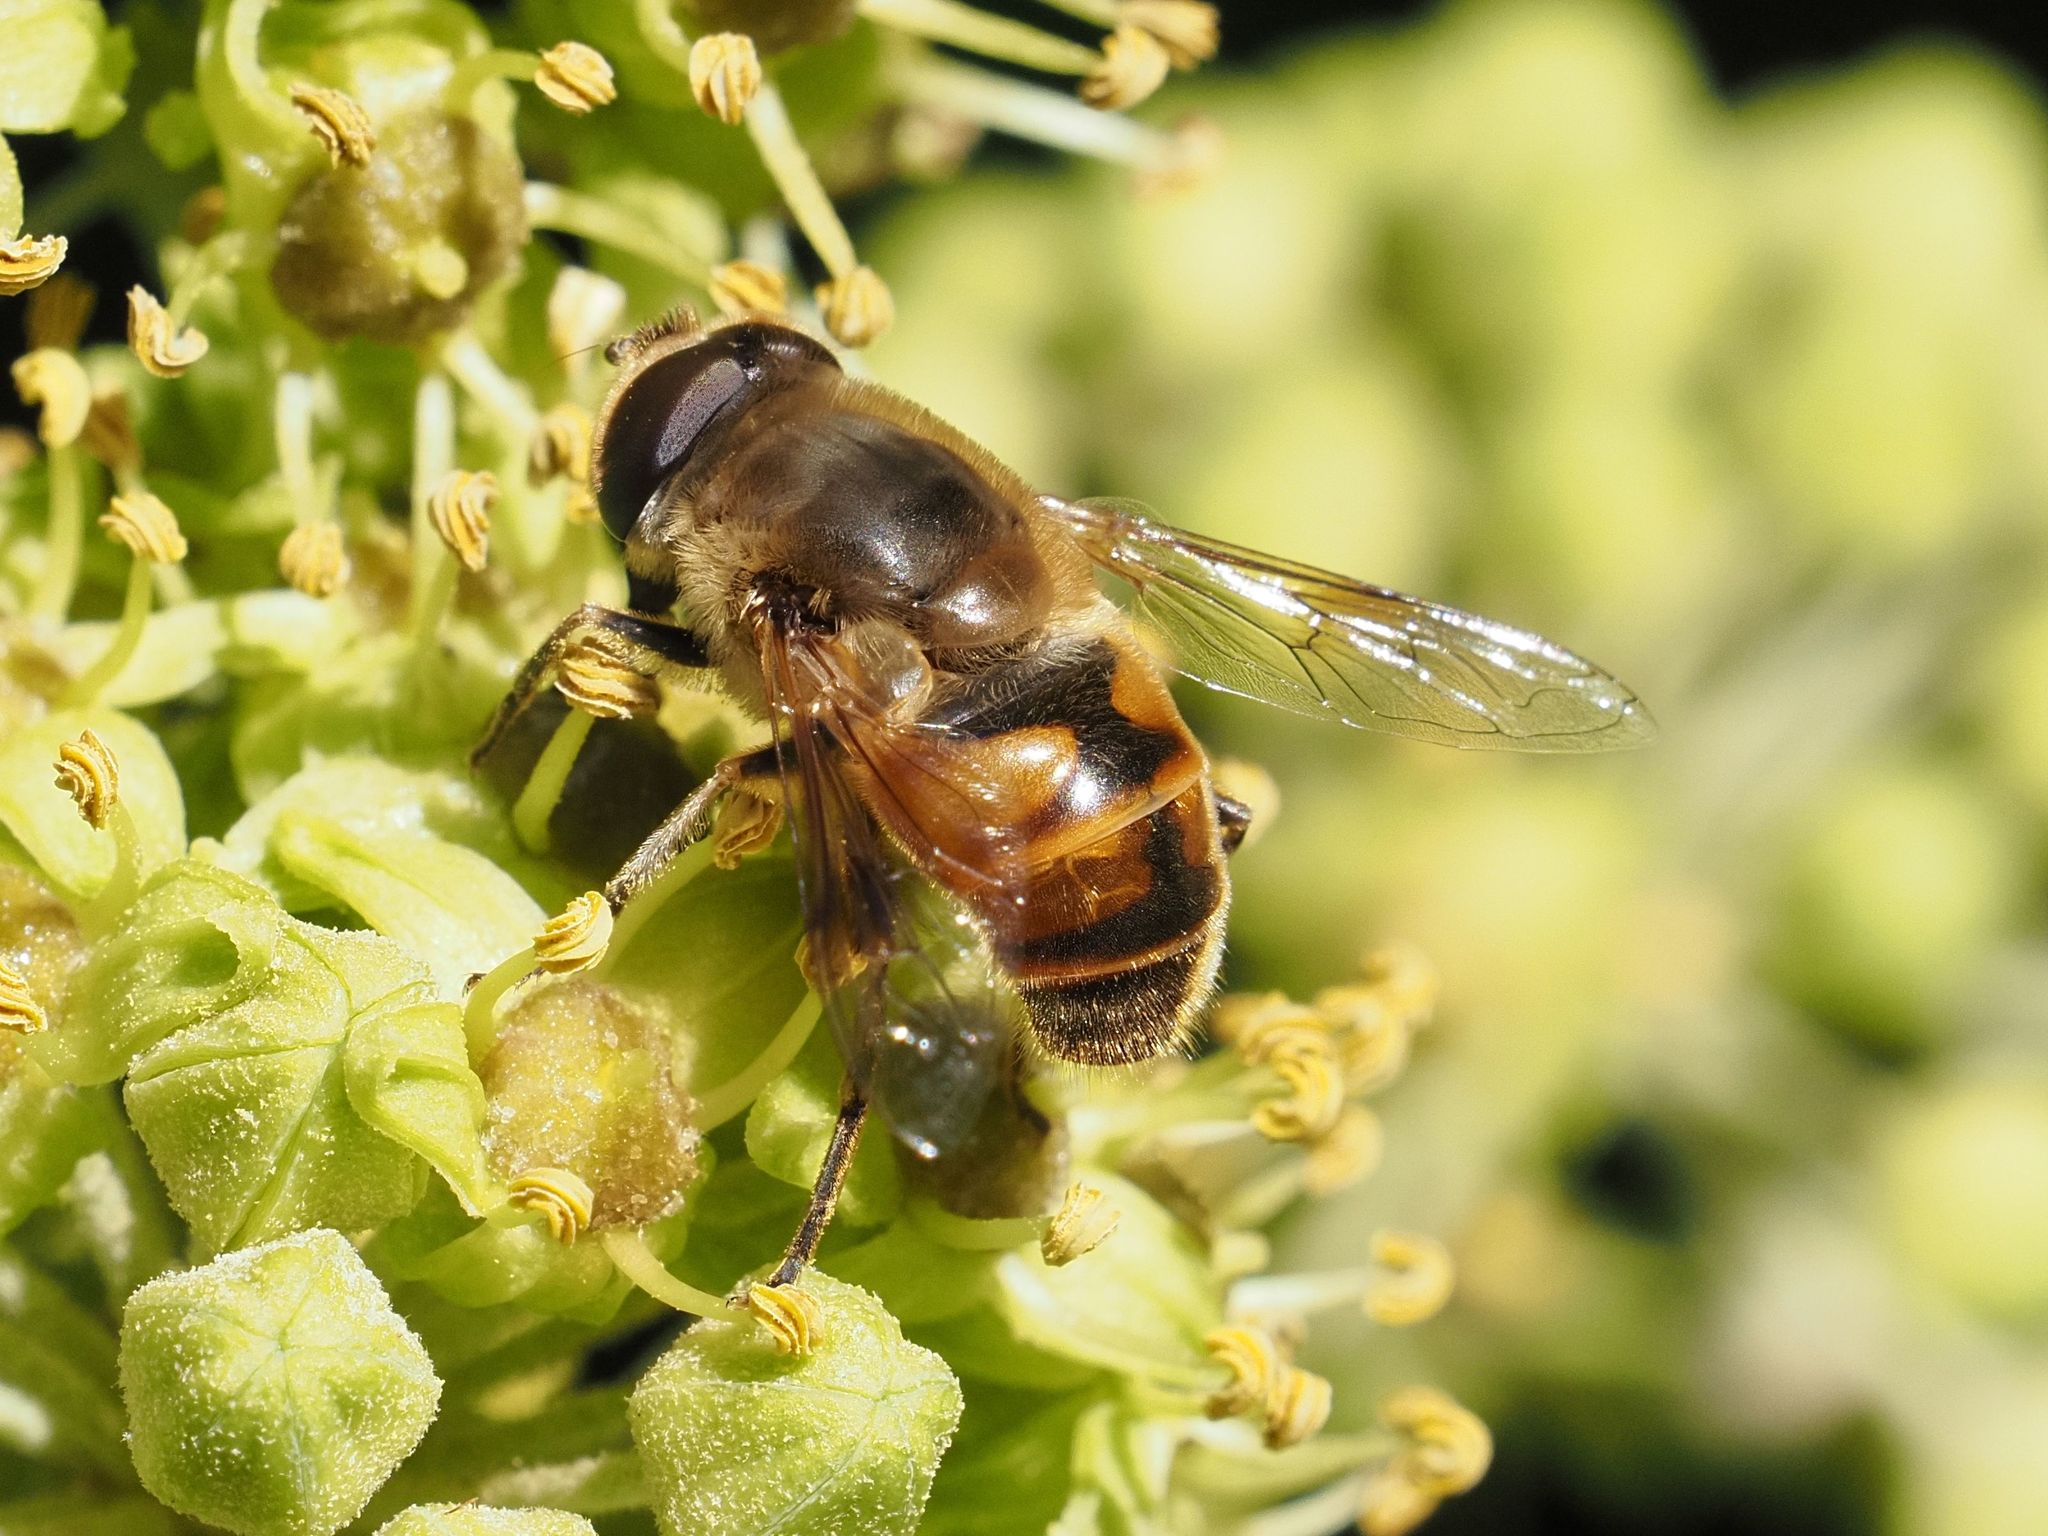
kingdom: Animalia
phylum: Arthropoda
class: Insecta
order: Diptera
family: Syrphidae
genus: Eristalis
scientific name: Eristalis tenax
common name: Drone fly
